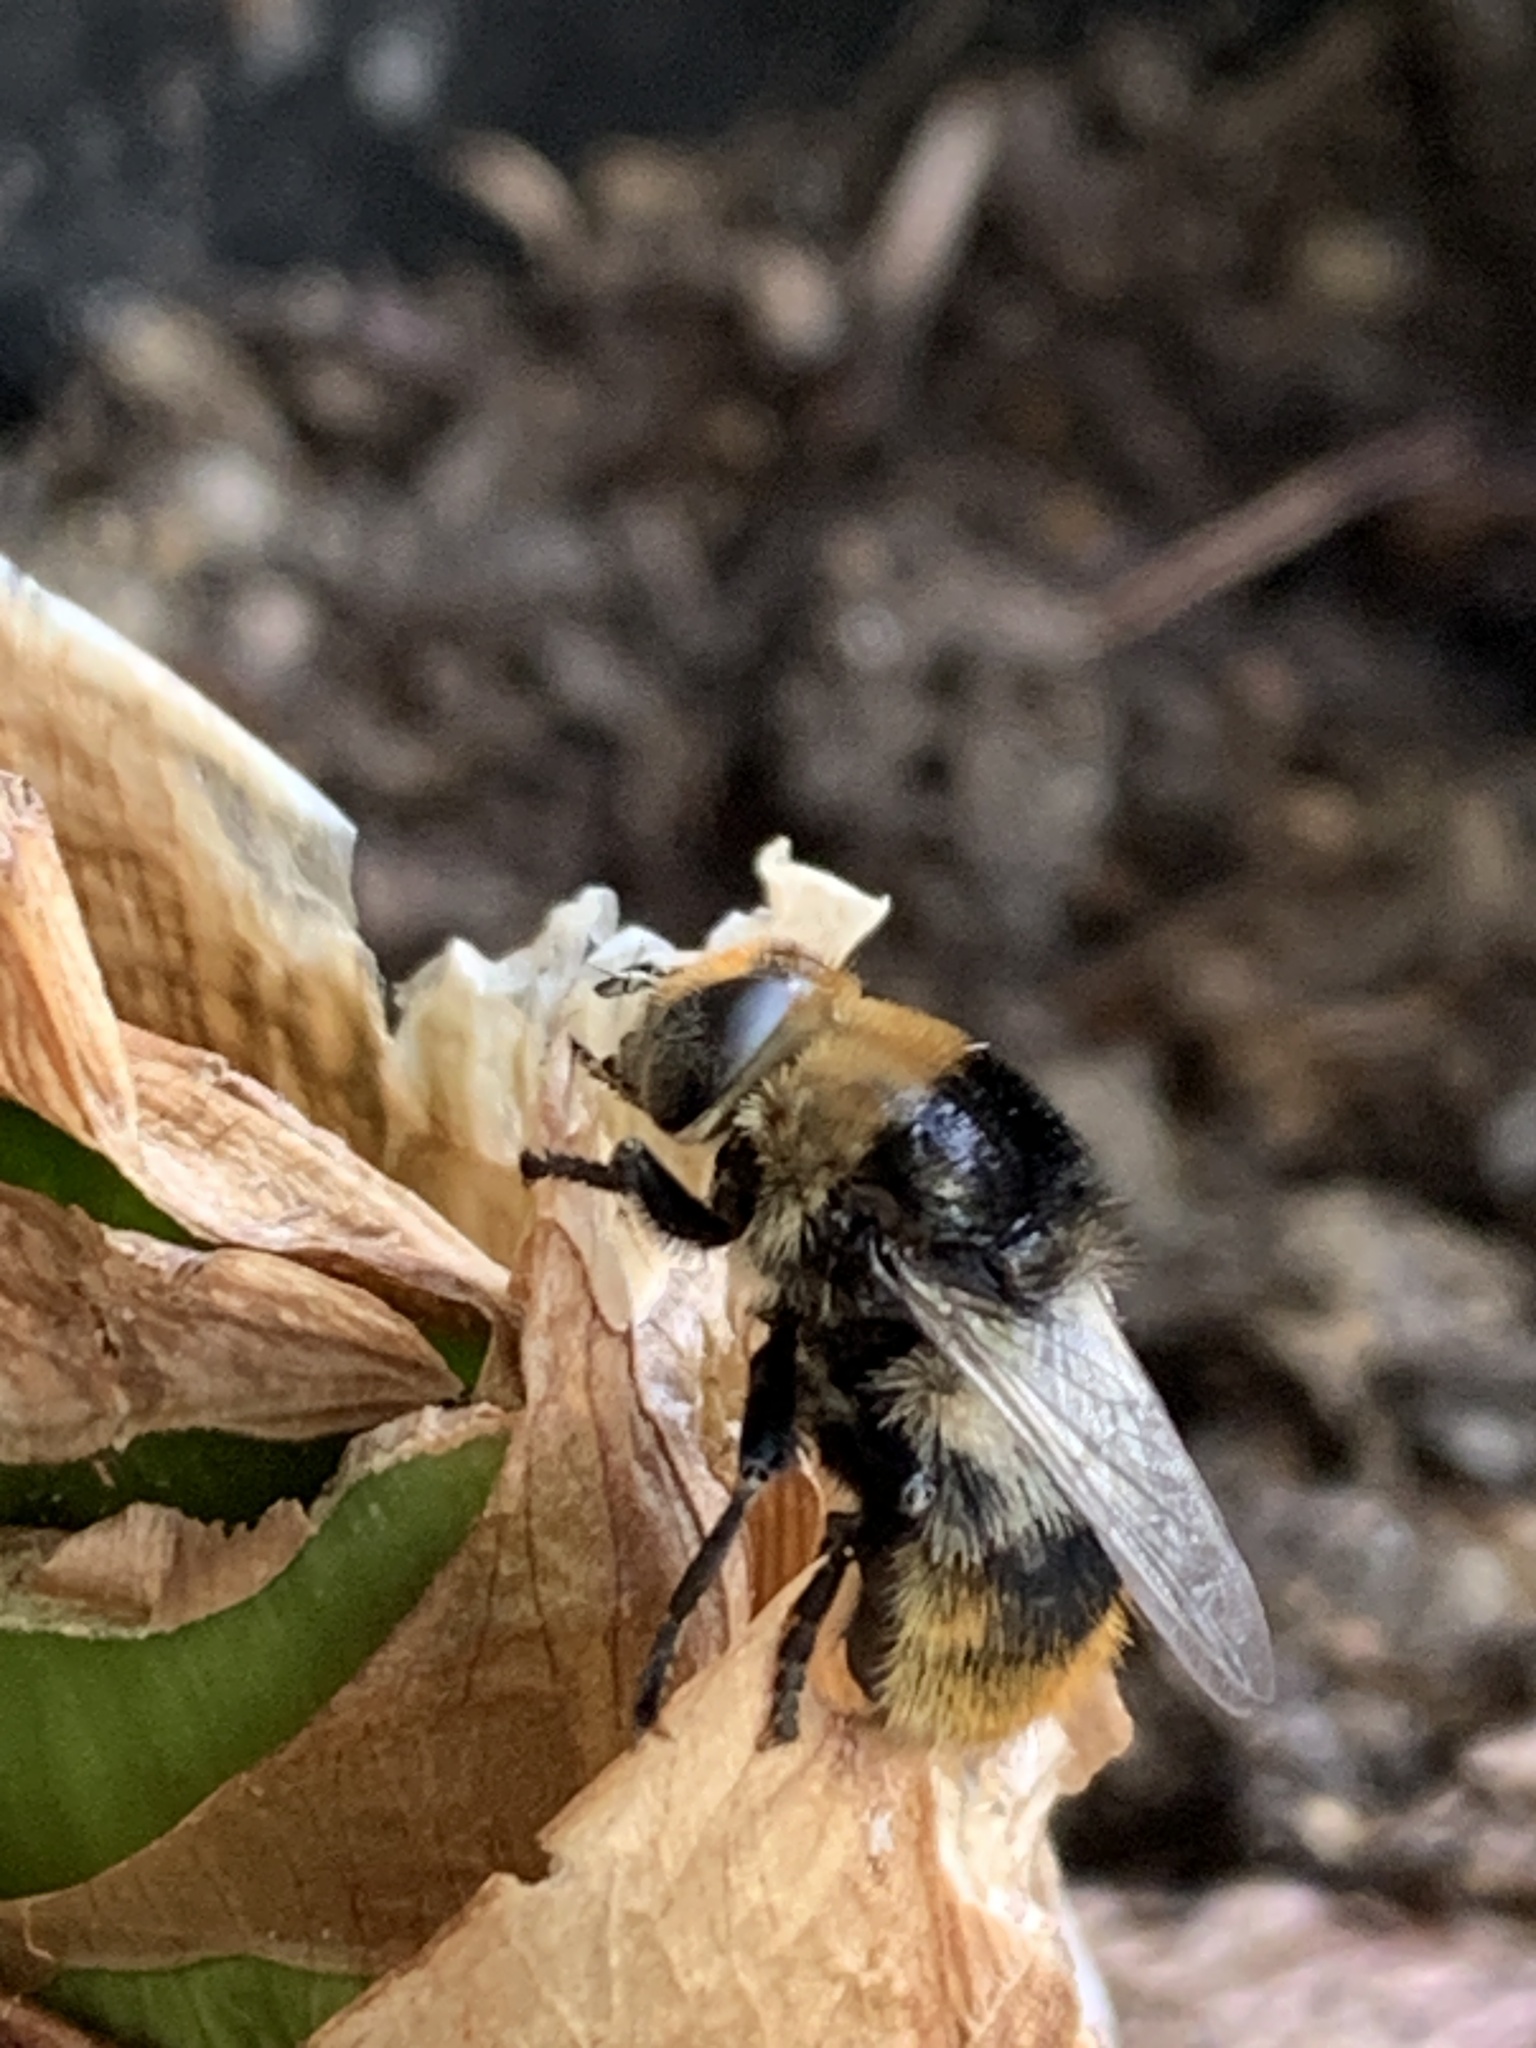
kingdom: Animalia
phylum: Arthropoda
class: Insecta
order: Diptera
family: Syrphidae
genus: Merodon
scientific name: Merodon equestris
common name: Greater bulb-fly
